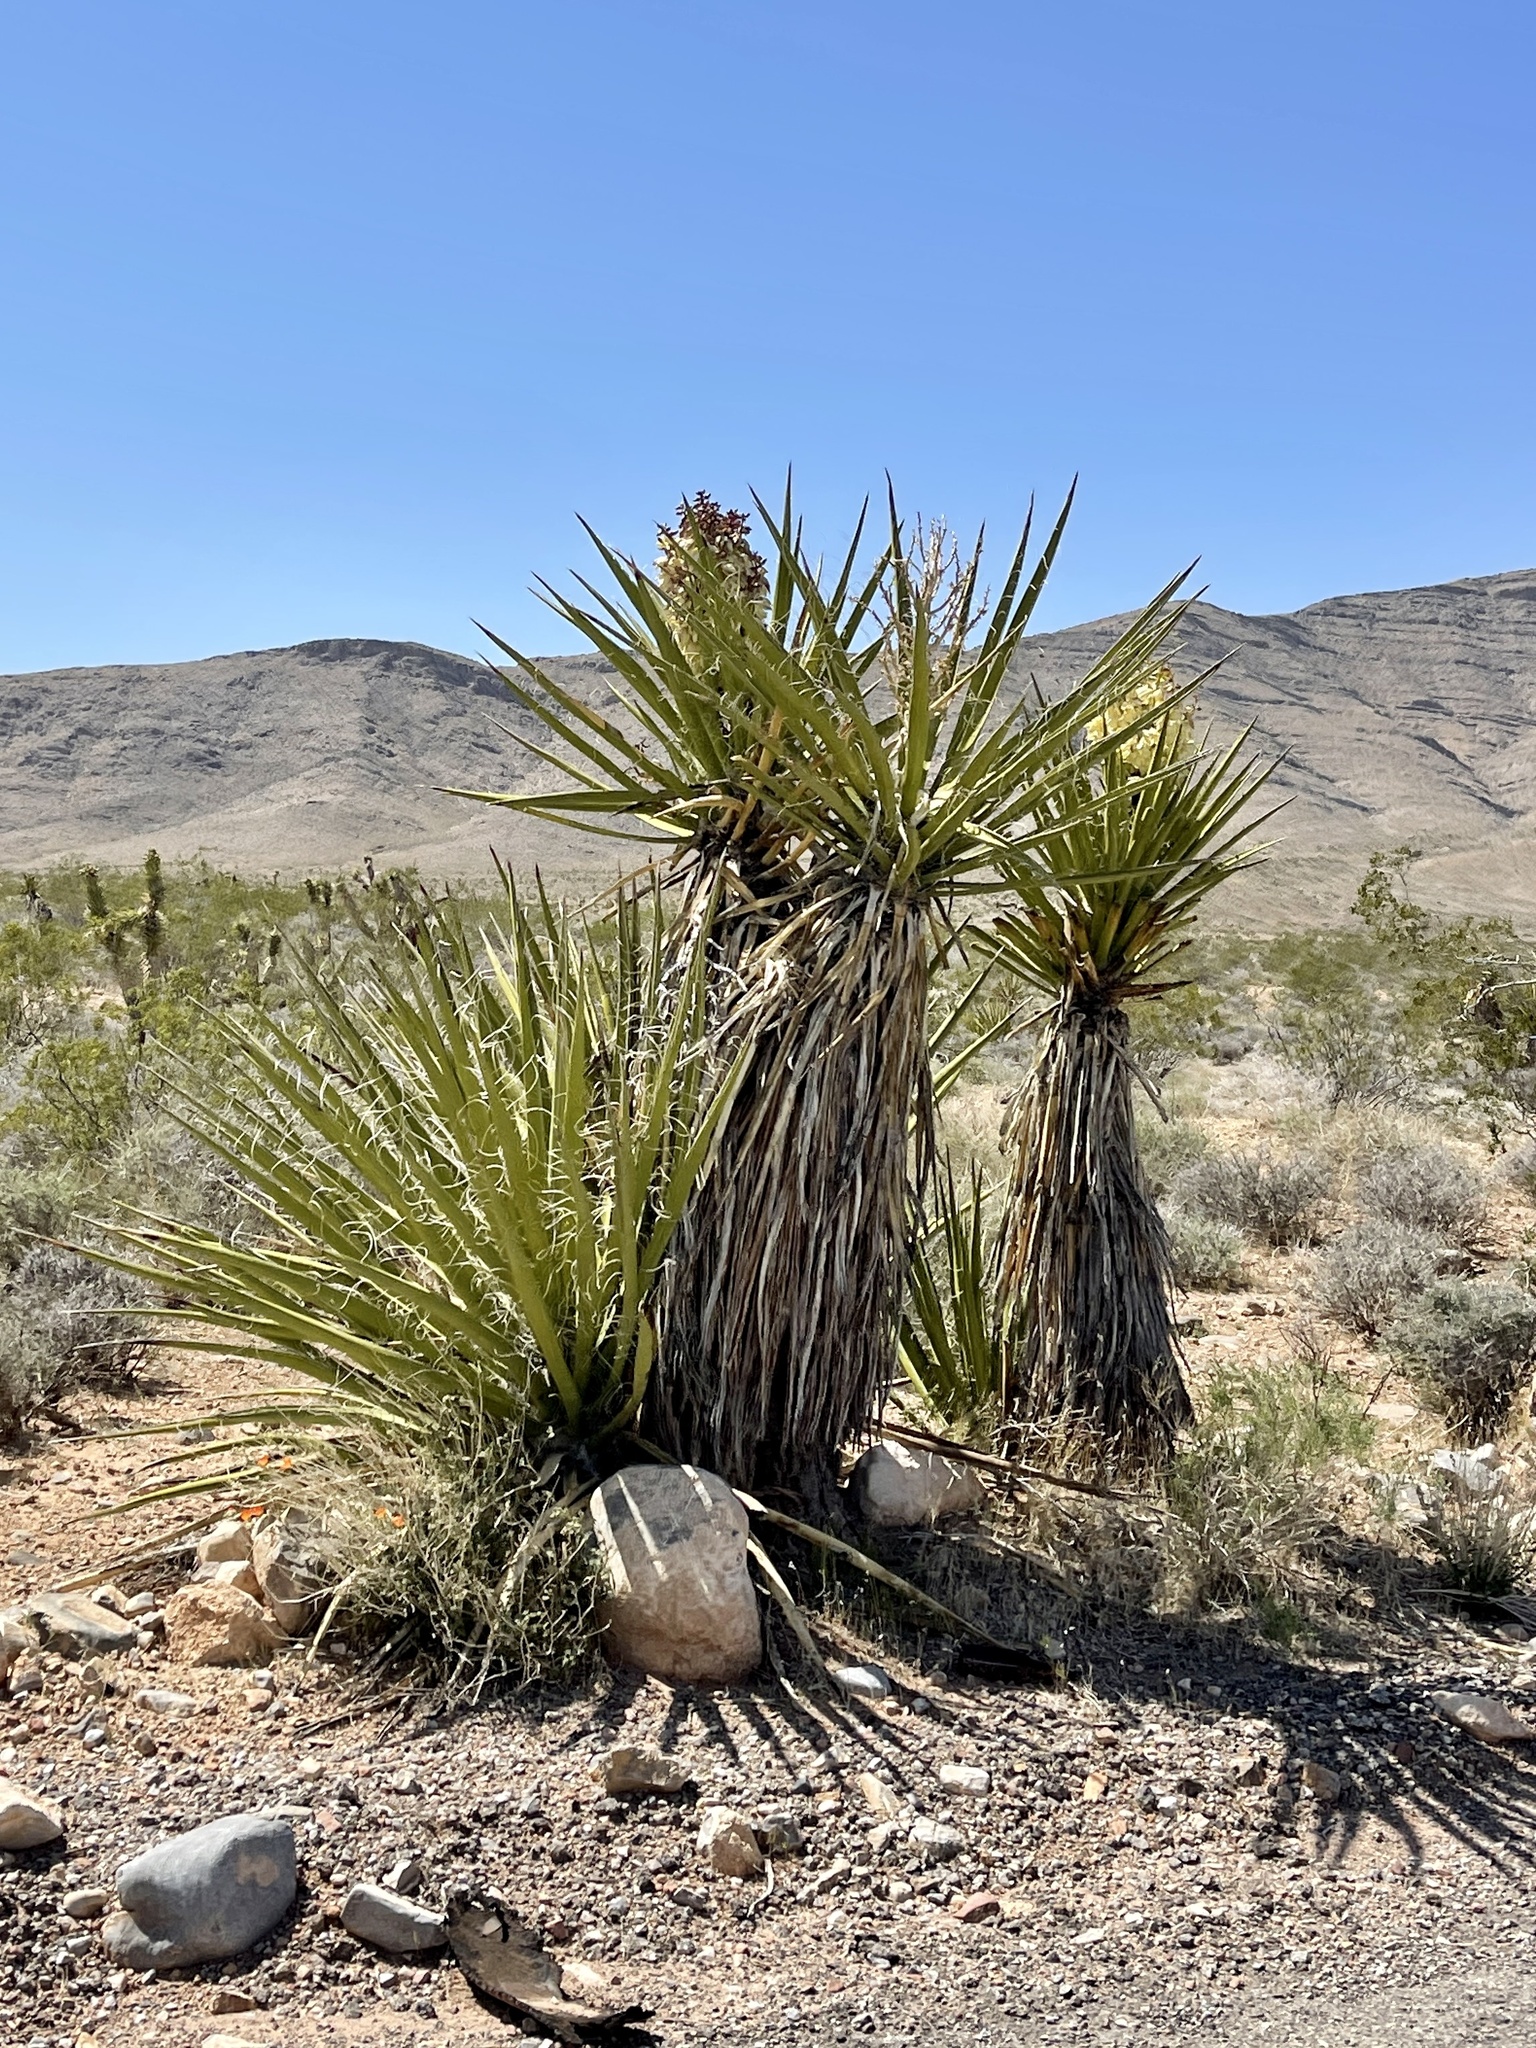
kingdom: Plantae
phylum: Tracheophyta
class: Liliopsida
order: Asparagales
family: Asparagaceae
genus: Yucca
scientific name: Yucca schidigera
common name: Mojave yucca
